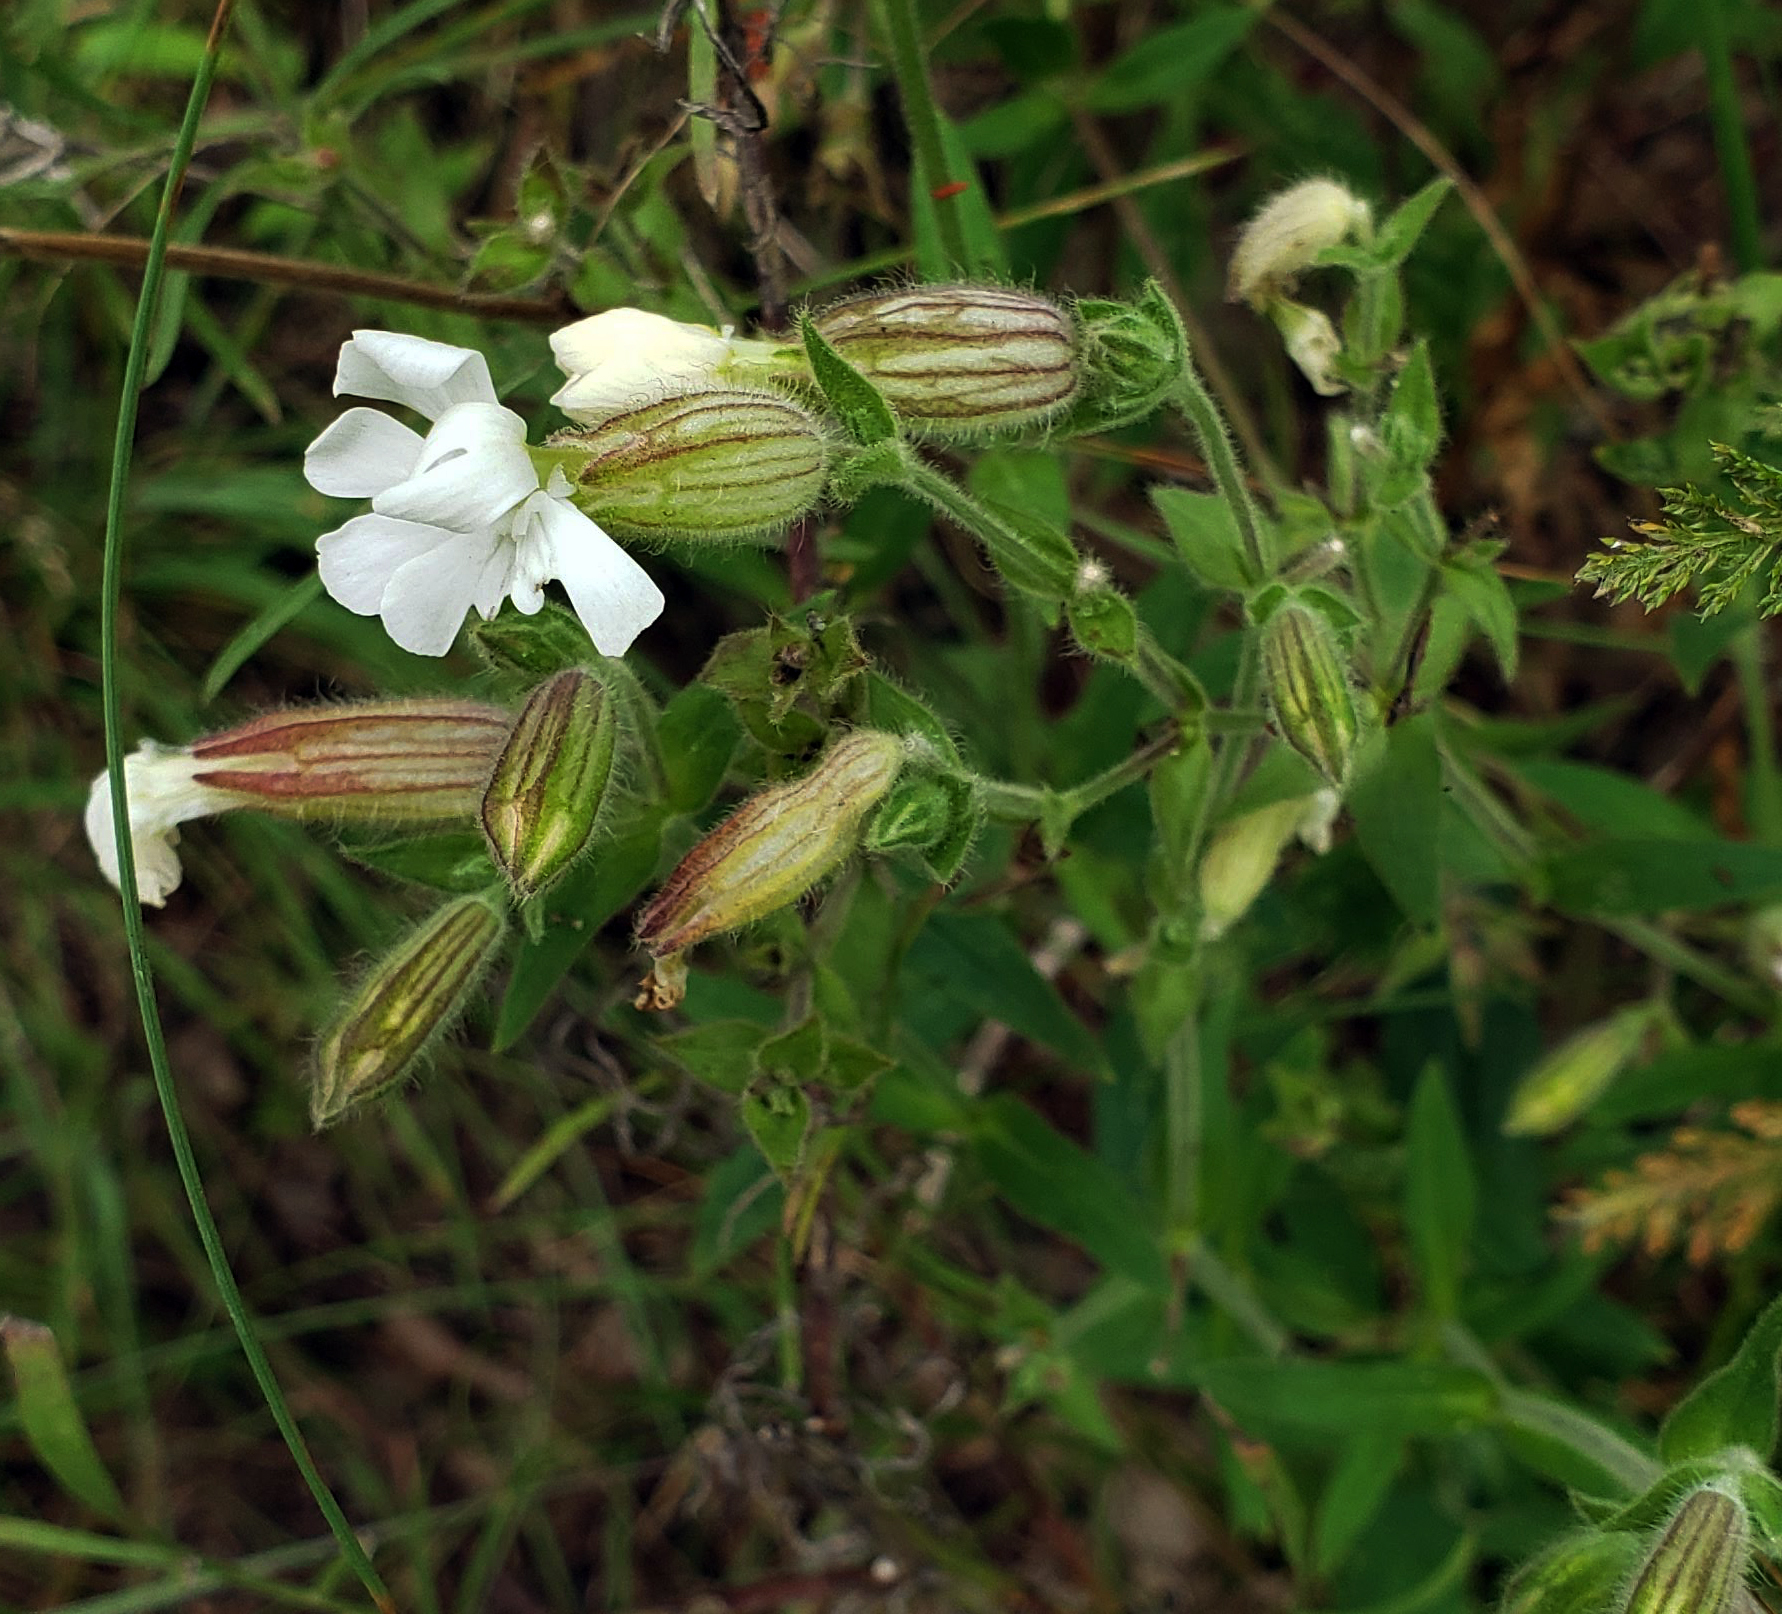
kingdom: Plantae
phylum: Tracheophyta
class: Magnoliopsida
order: Caryophyllales
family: Caryophyllaceae
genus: Silene
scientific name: Silene latifolia
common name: White campion
